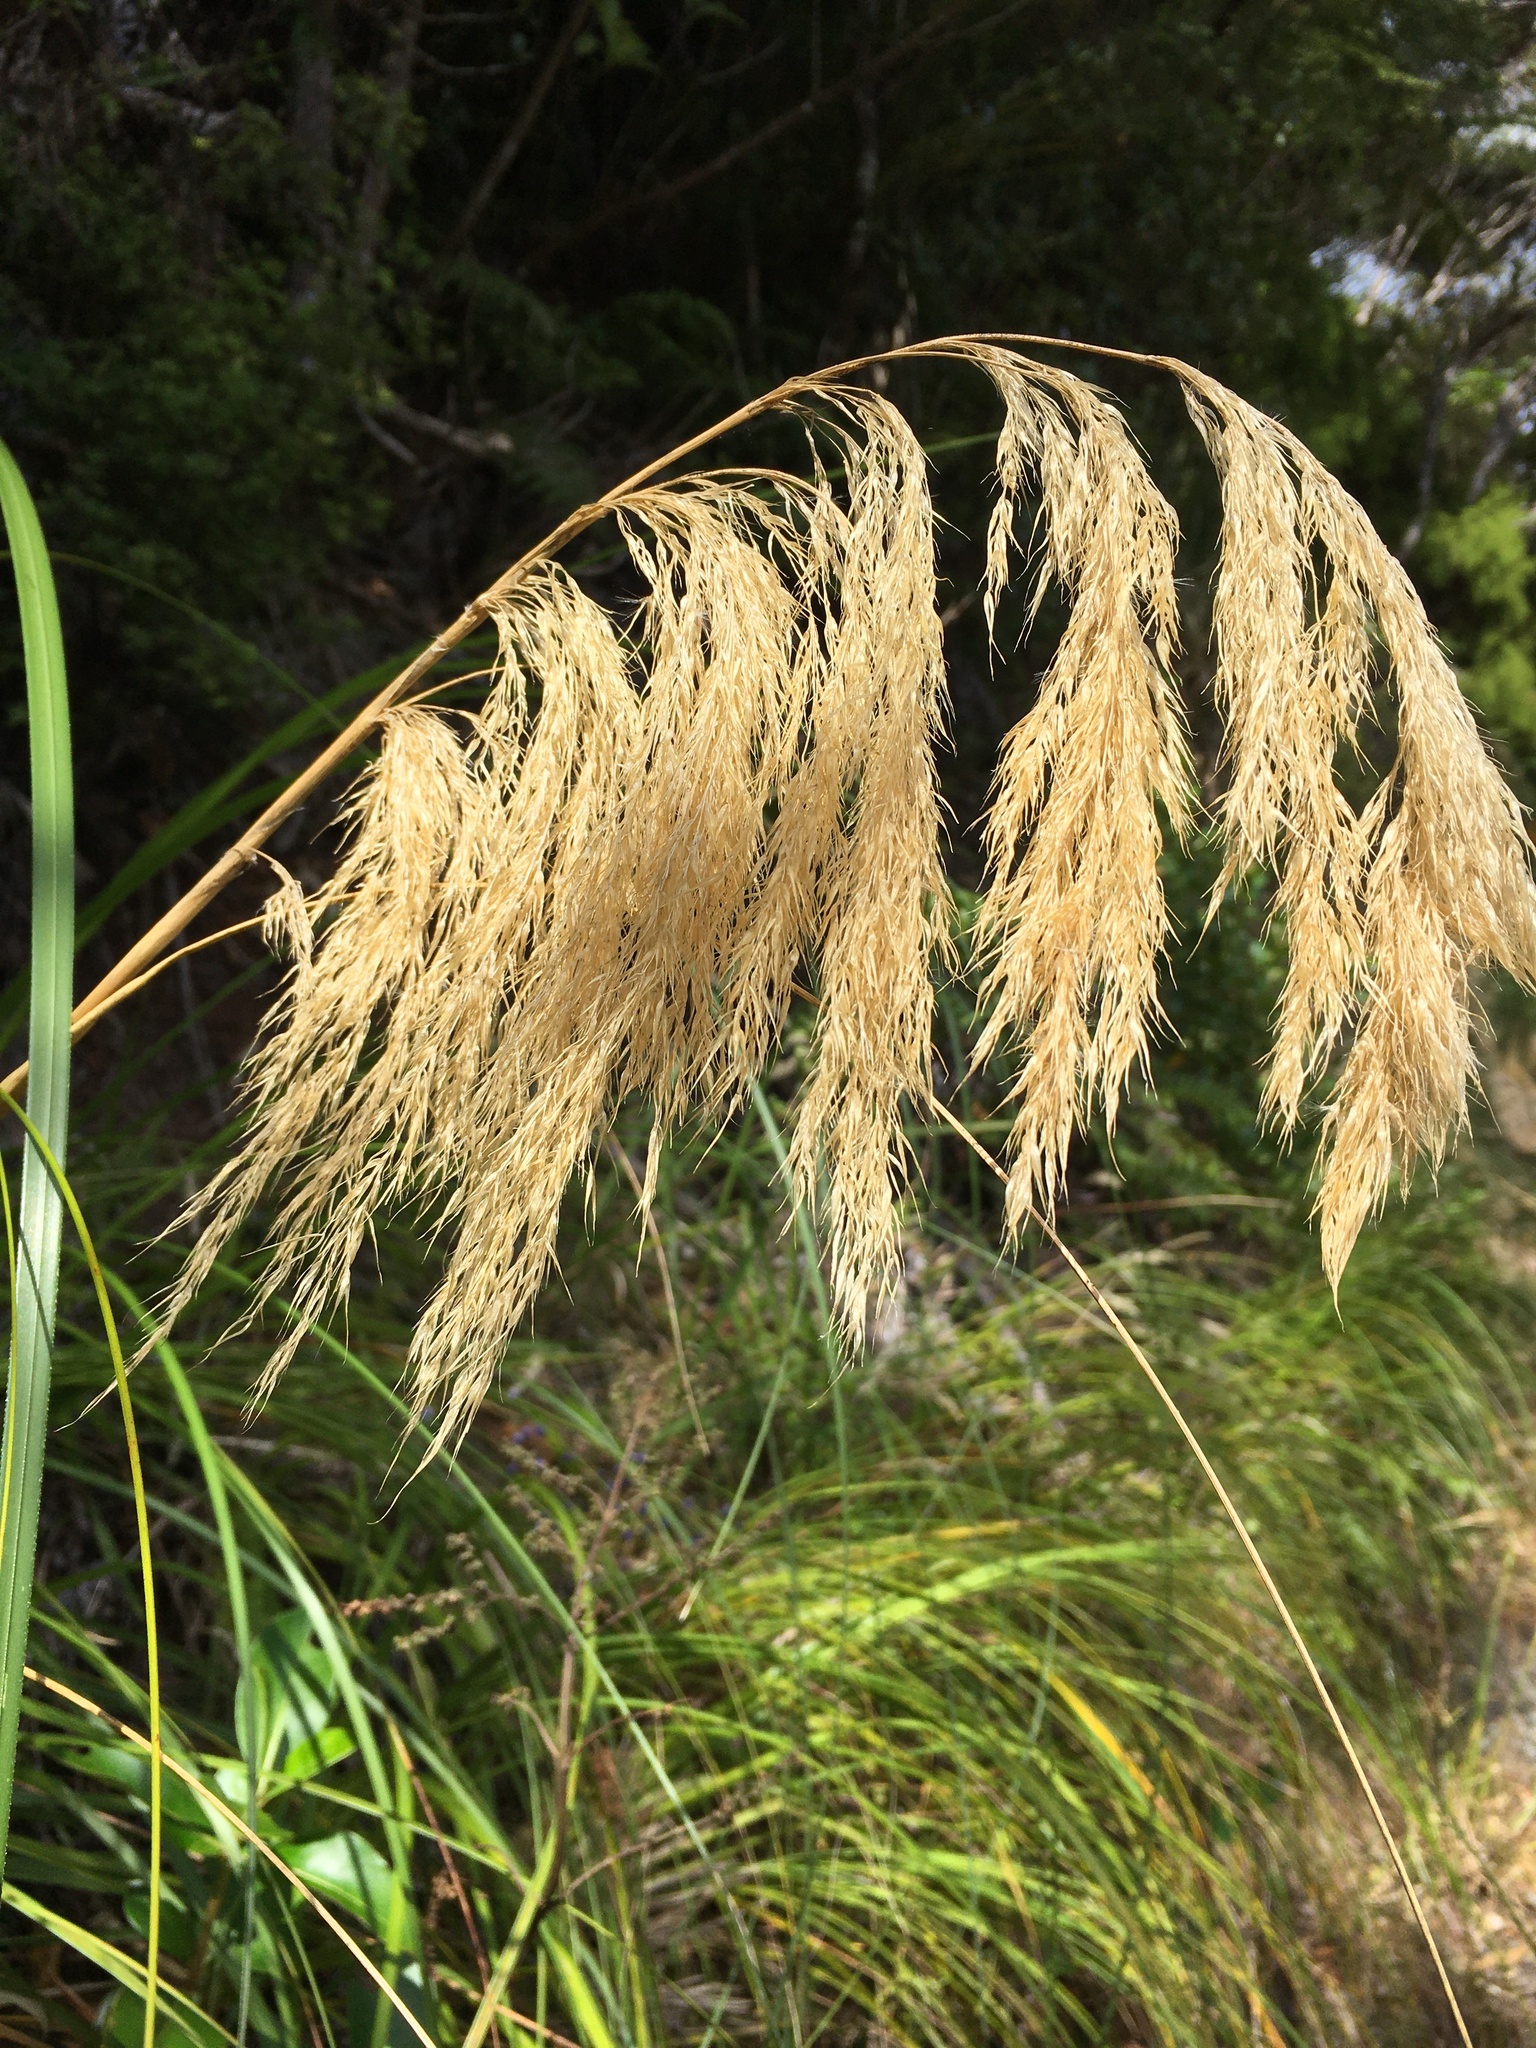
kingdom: Plantae
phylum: Tracheophyta
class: Liliopsida
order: Poales
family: Poaceae
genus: Austroderia
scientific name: Austroderia fulvida
